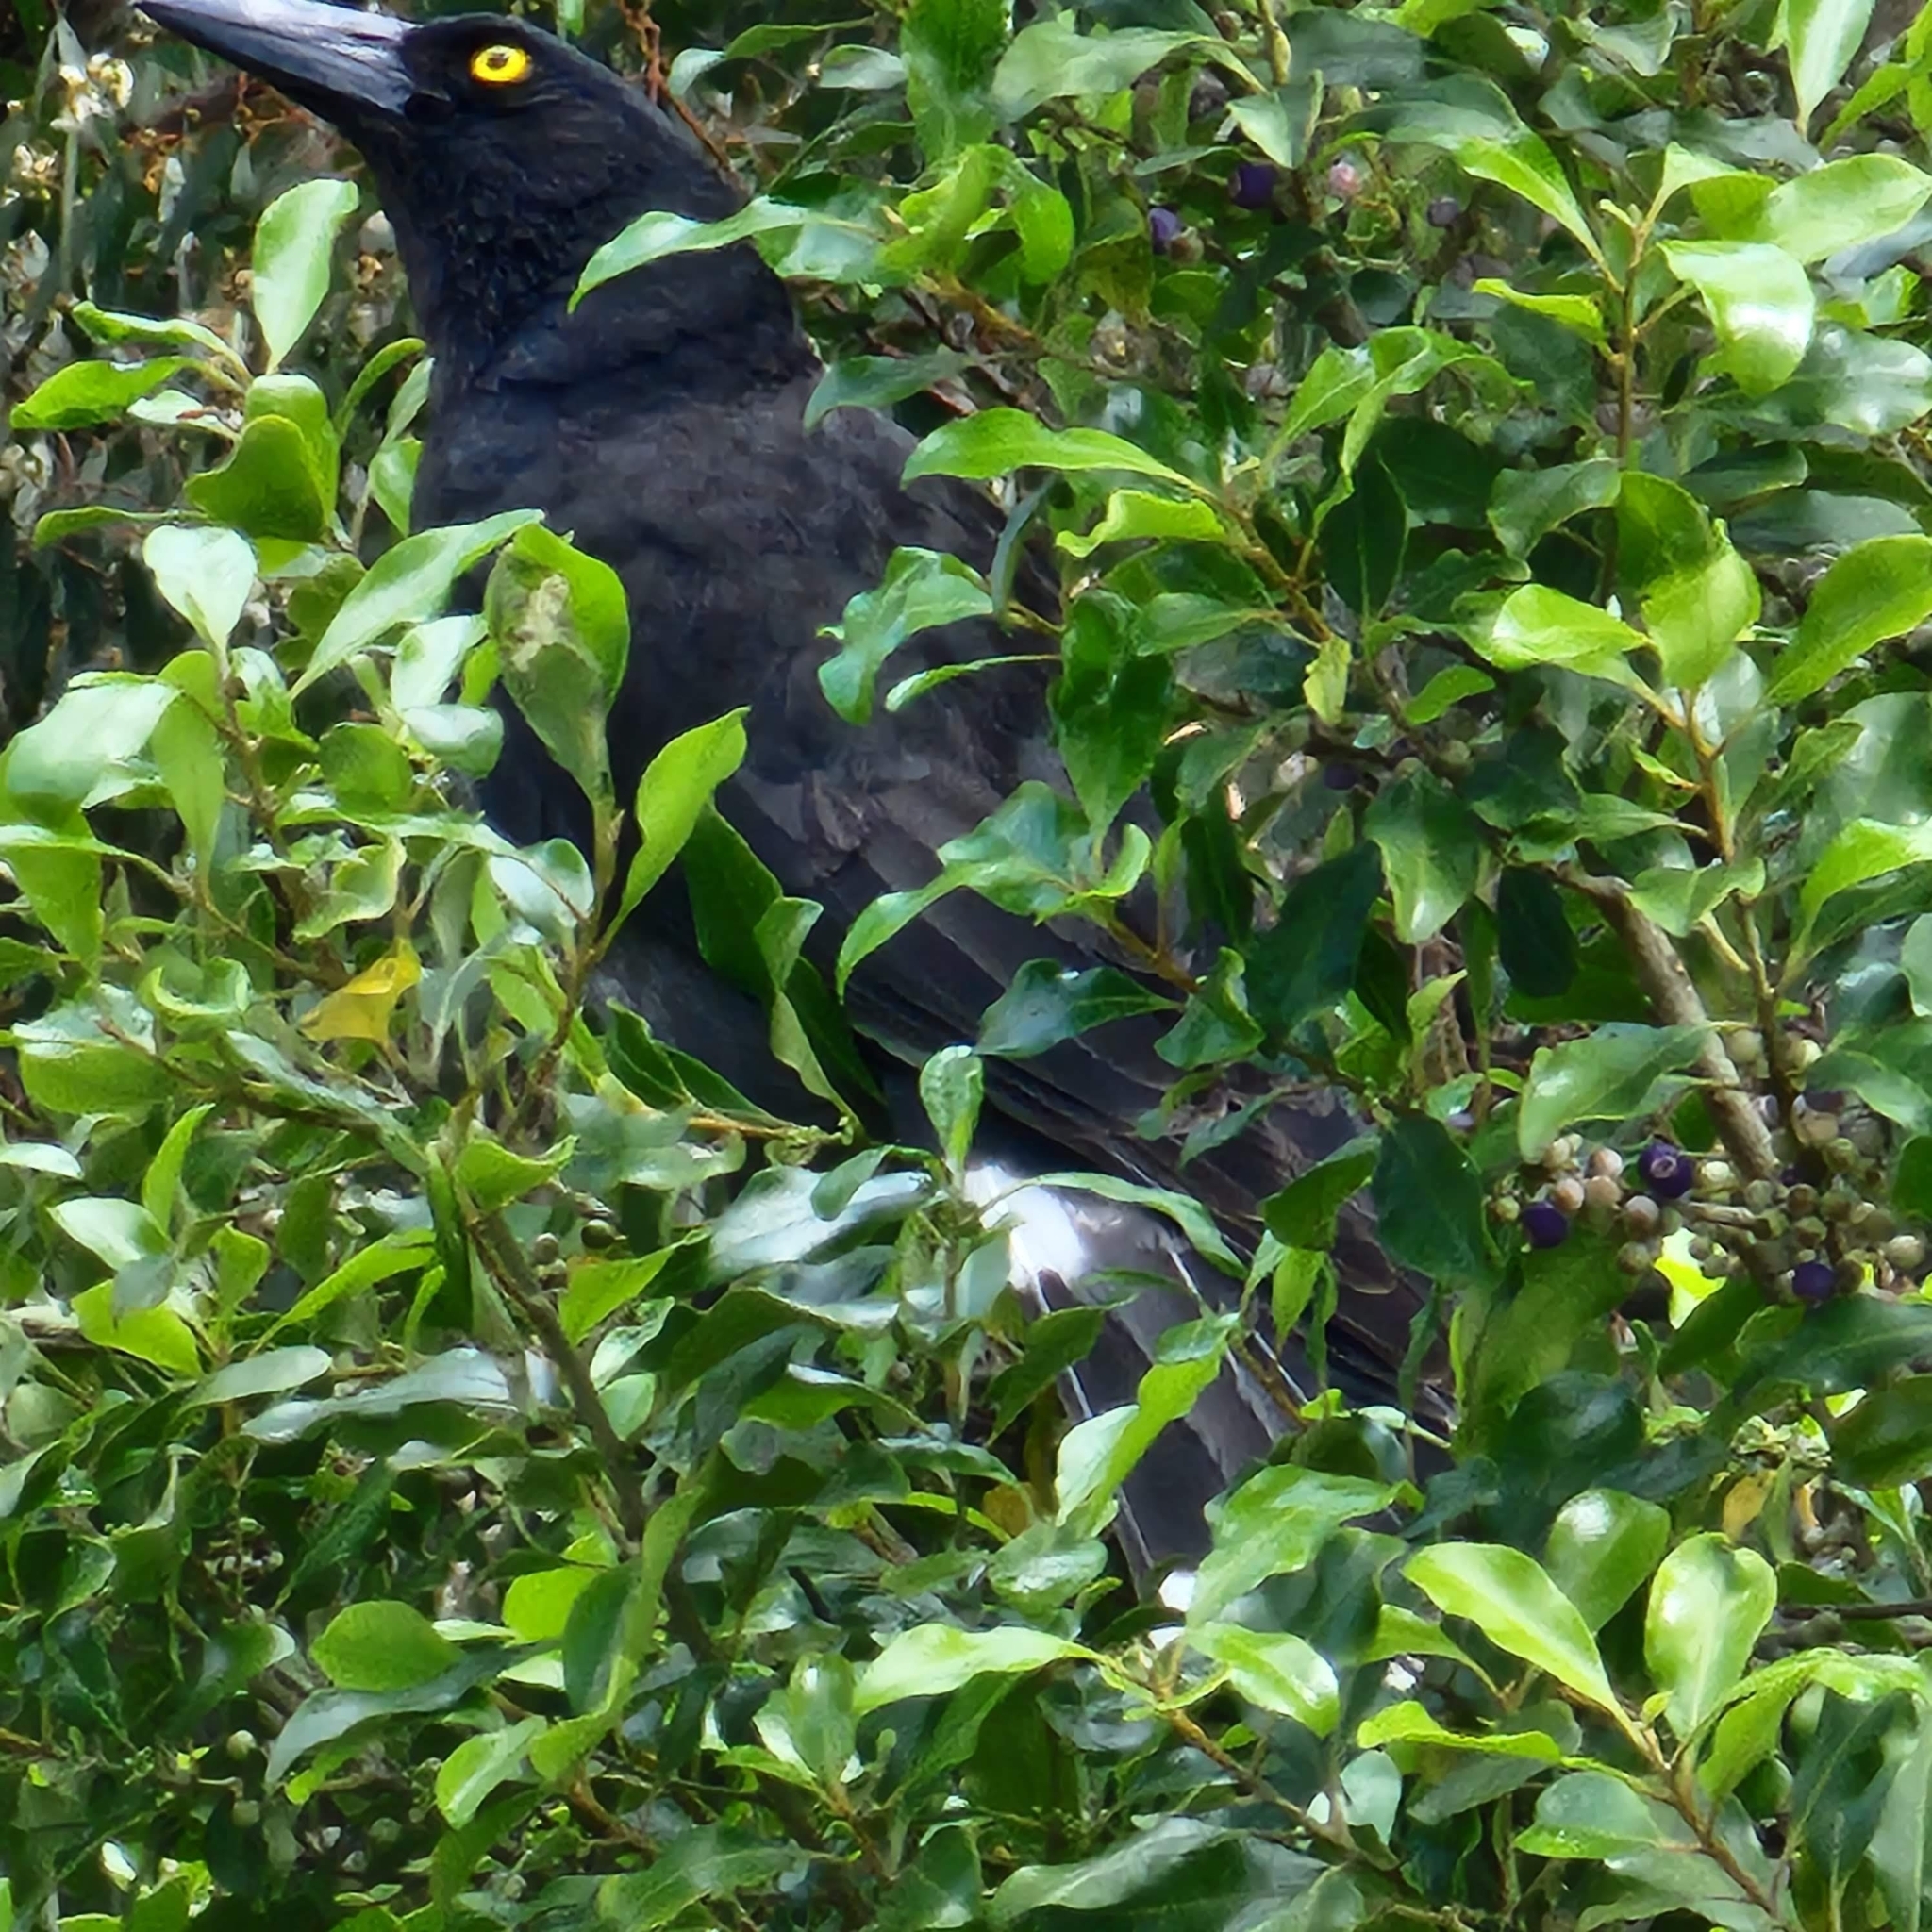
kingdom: Animalia
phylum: Chordata
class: Aves
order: Passeriformes
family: Cracticidae
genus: Strepera
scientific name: Strepera graculina
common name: Pied currawong
